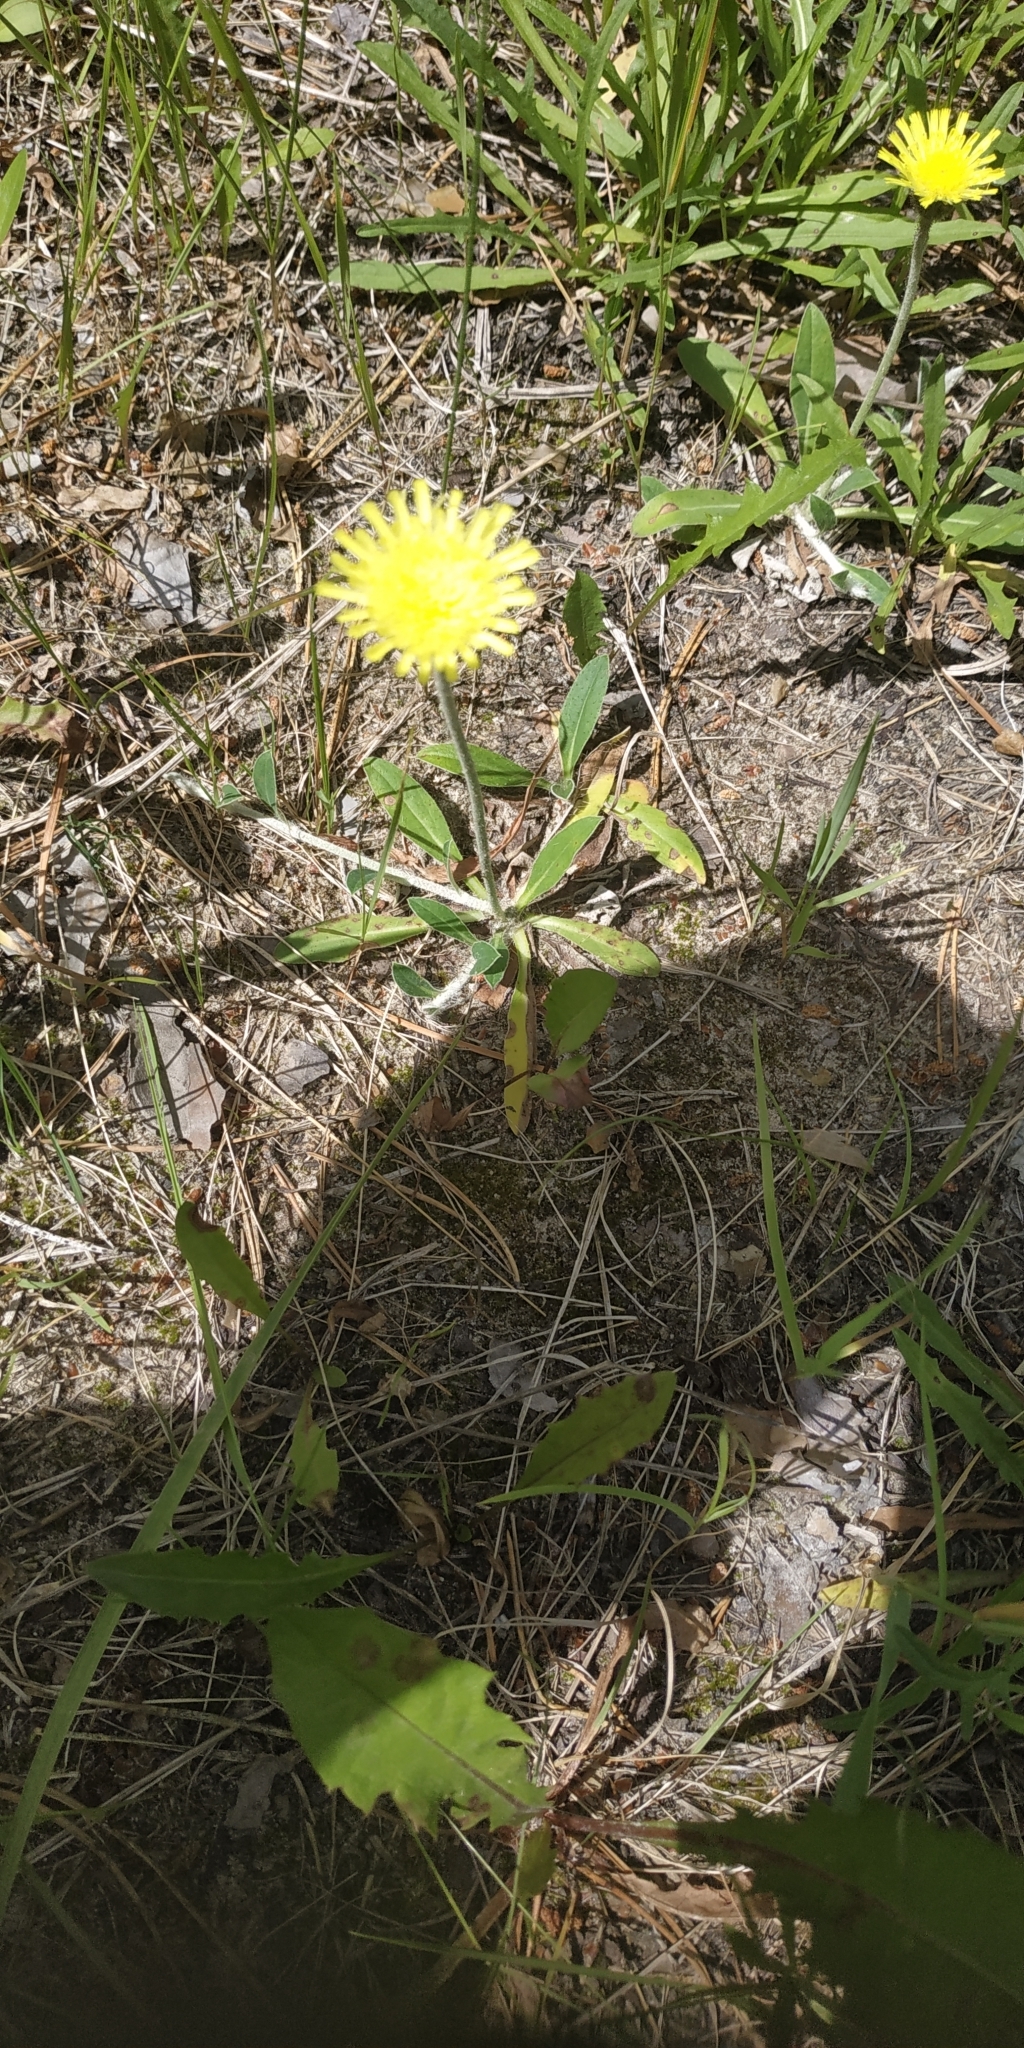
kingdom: Plantae
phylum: Tracheophyta
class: Magnoliopsida
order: Asterales
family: Asteraceae
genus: Pilosella
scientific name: Pilosella officinarum
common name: Mouse-ear hawkweed
